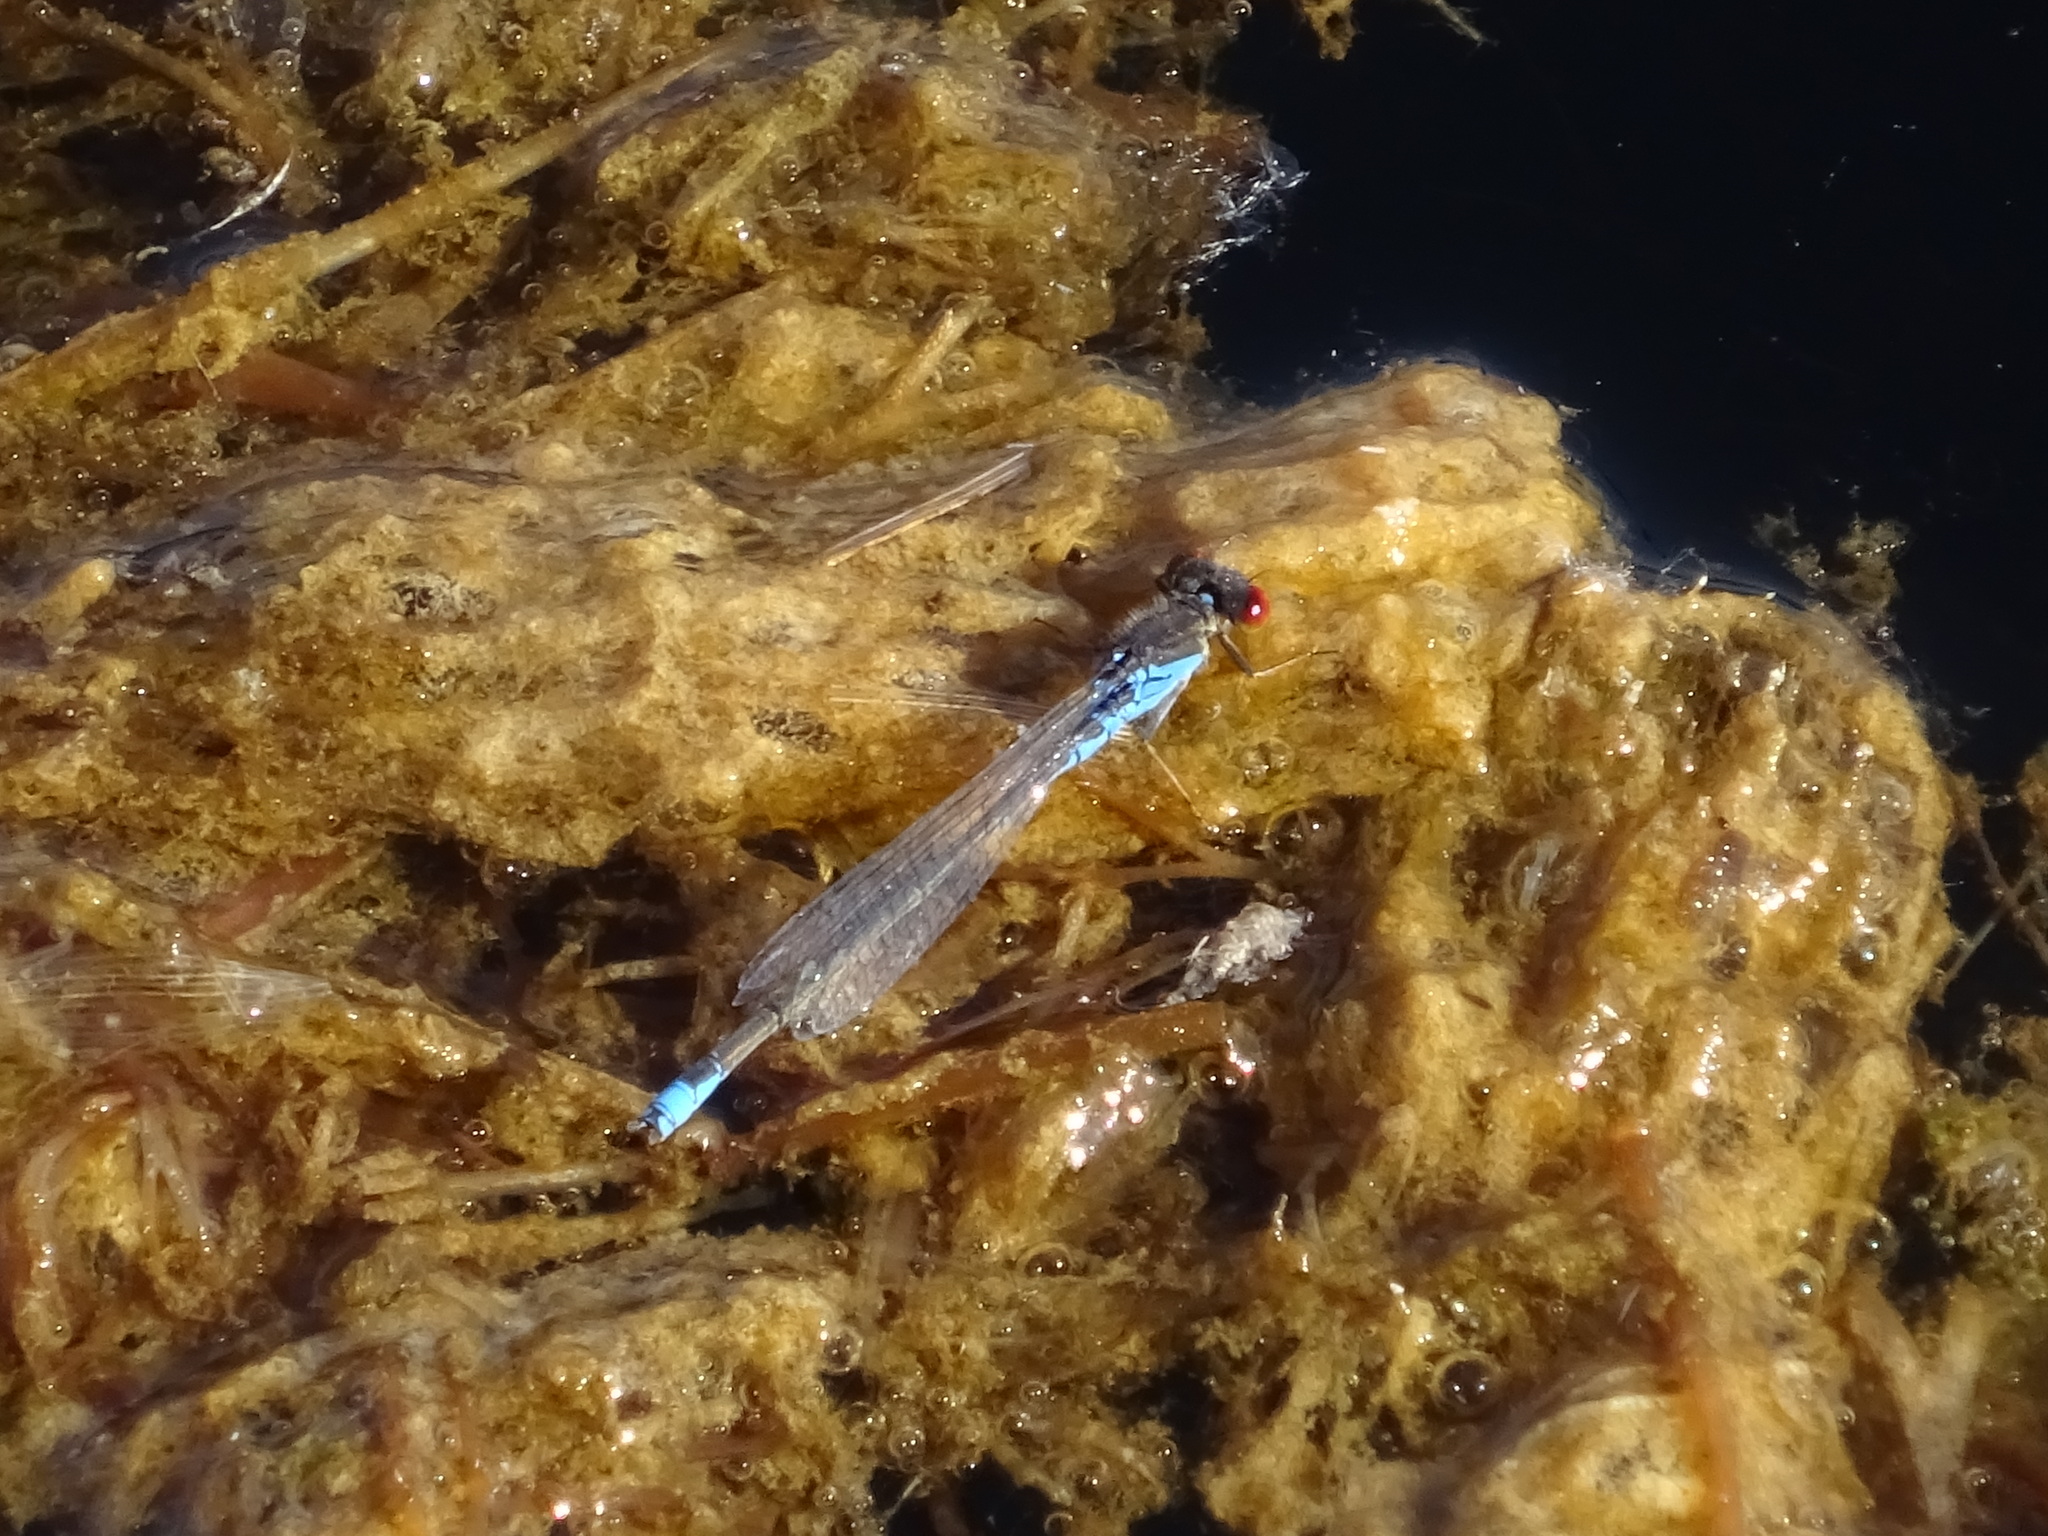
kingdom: Animalia
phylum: Arthropoda
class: Insecta
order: Odonata
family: Coenagrionidae
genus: Erythromma
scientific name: Erythromma viridulum
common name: Small red-eyed damselfly
